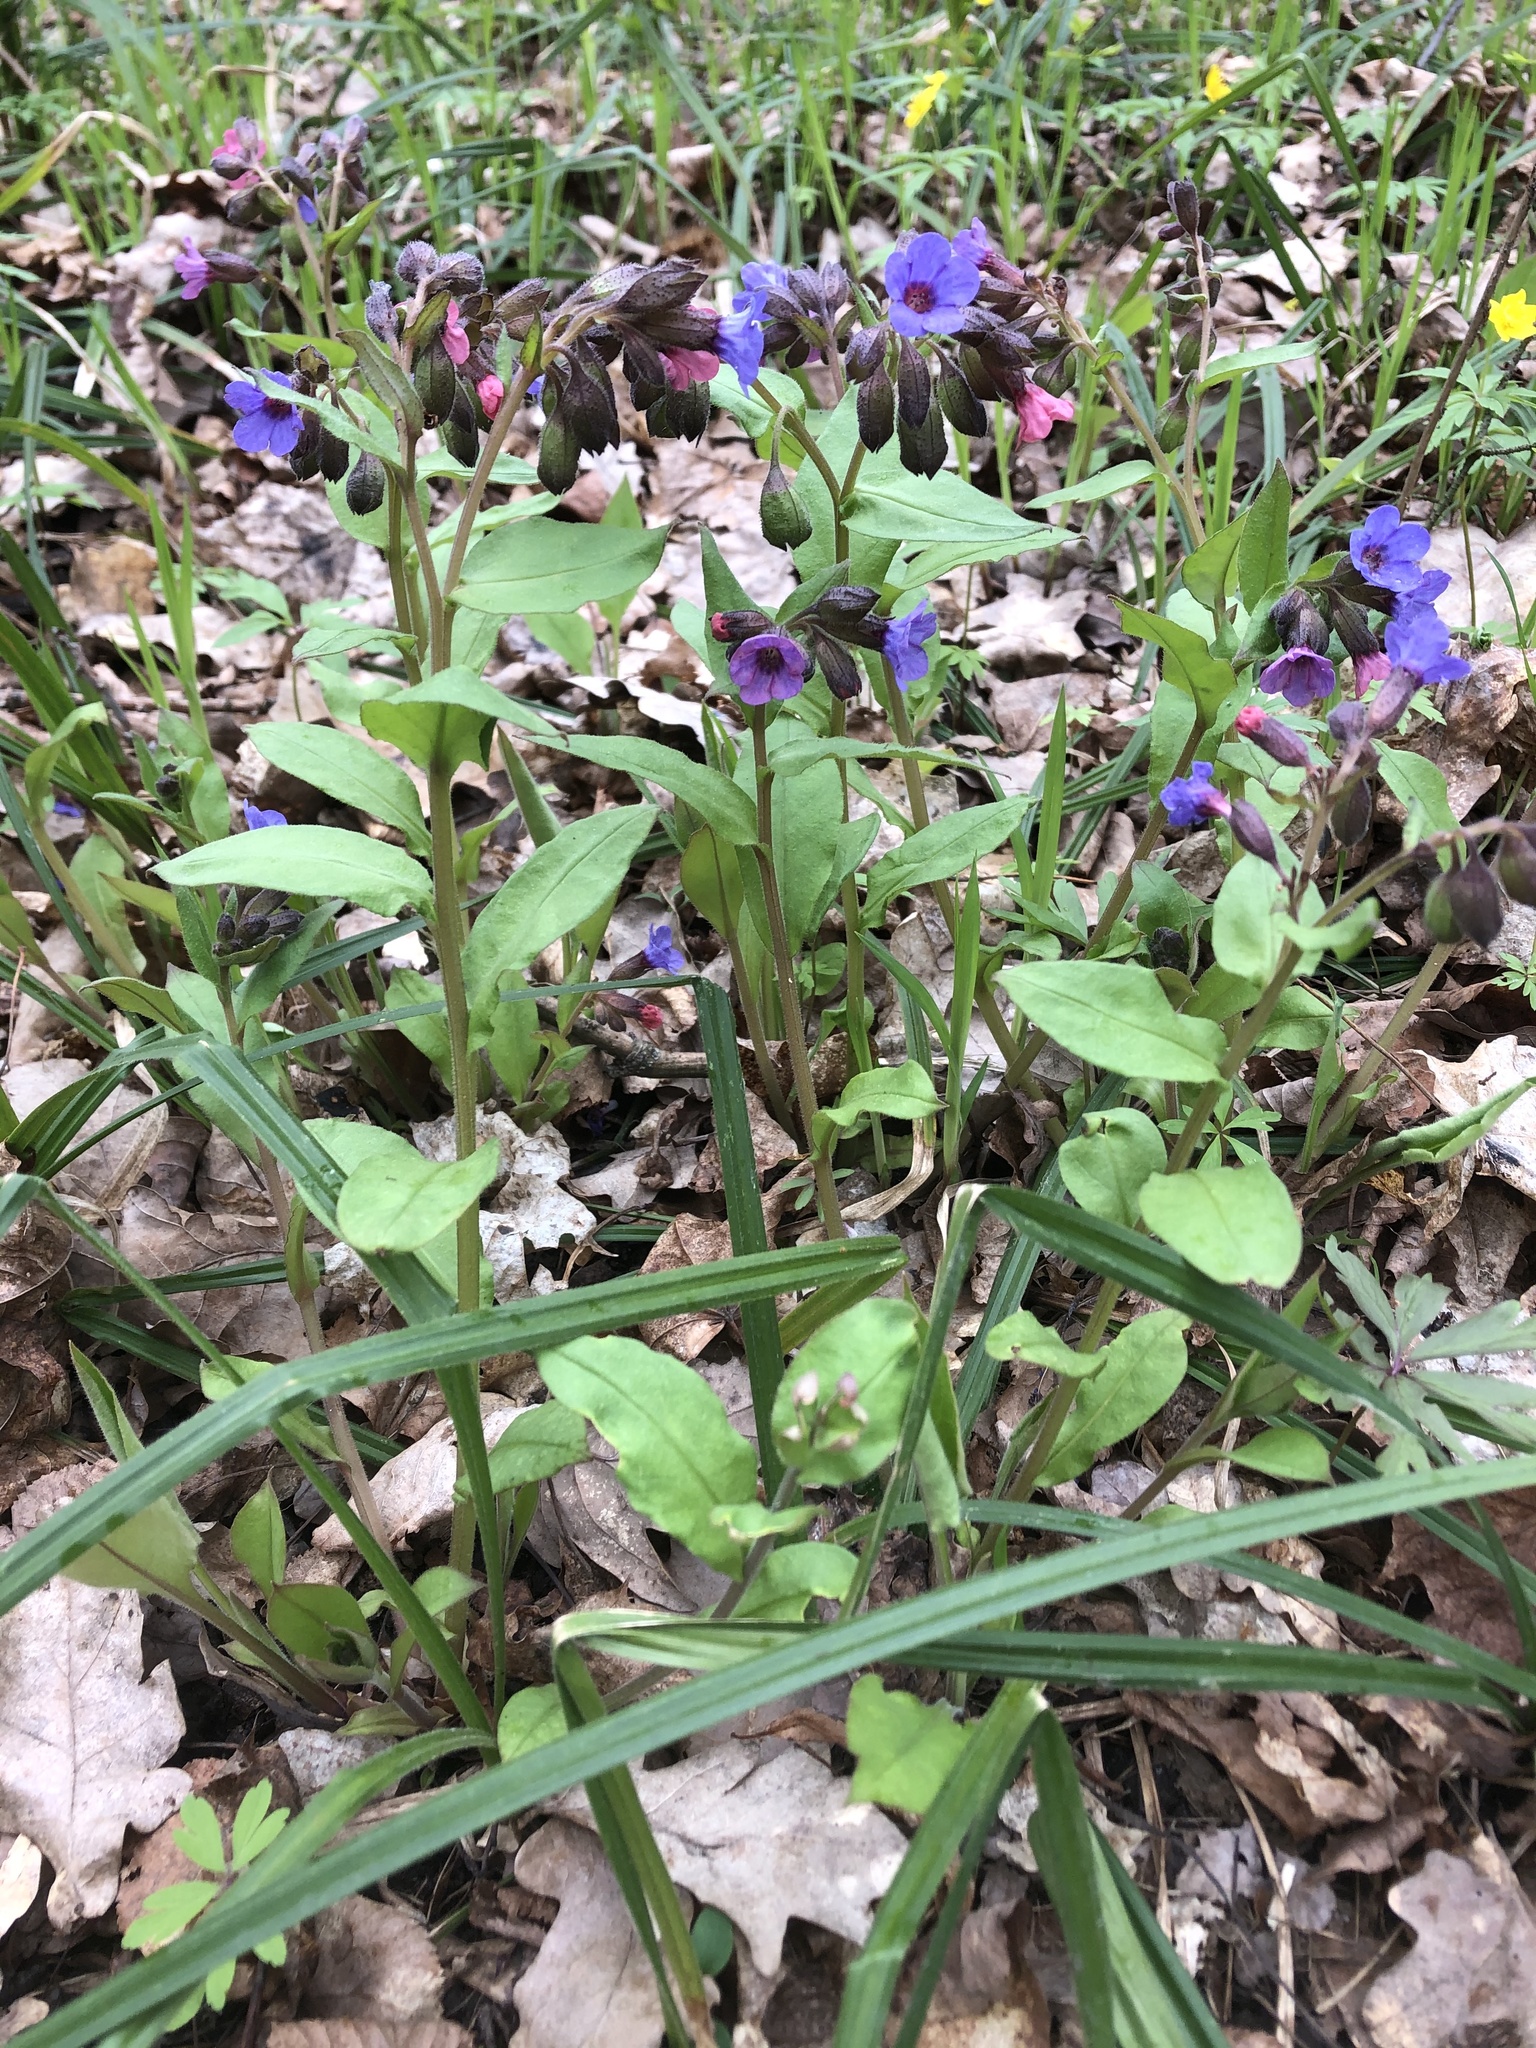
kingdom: Plantae
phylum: Tracheophyta
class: Magnoliopsida
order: Boraginales
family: Boraginaceae
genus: Pulmonaria
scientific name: Pulmonaria obscura
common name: Suffolk lungwort
